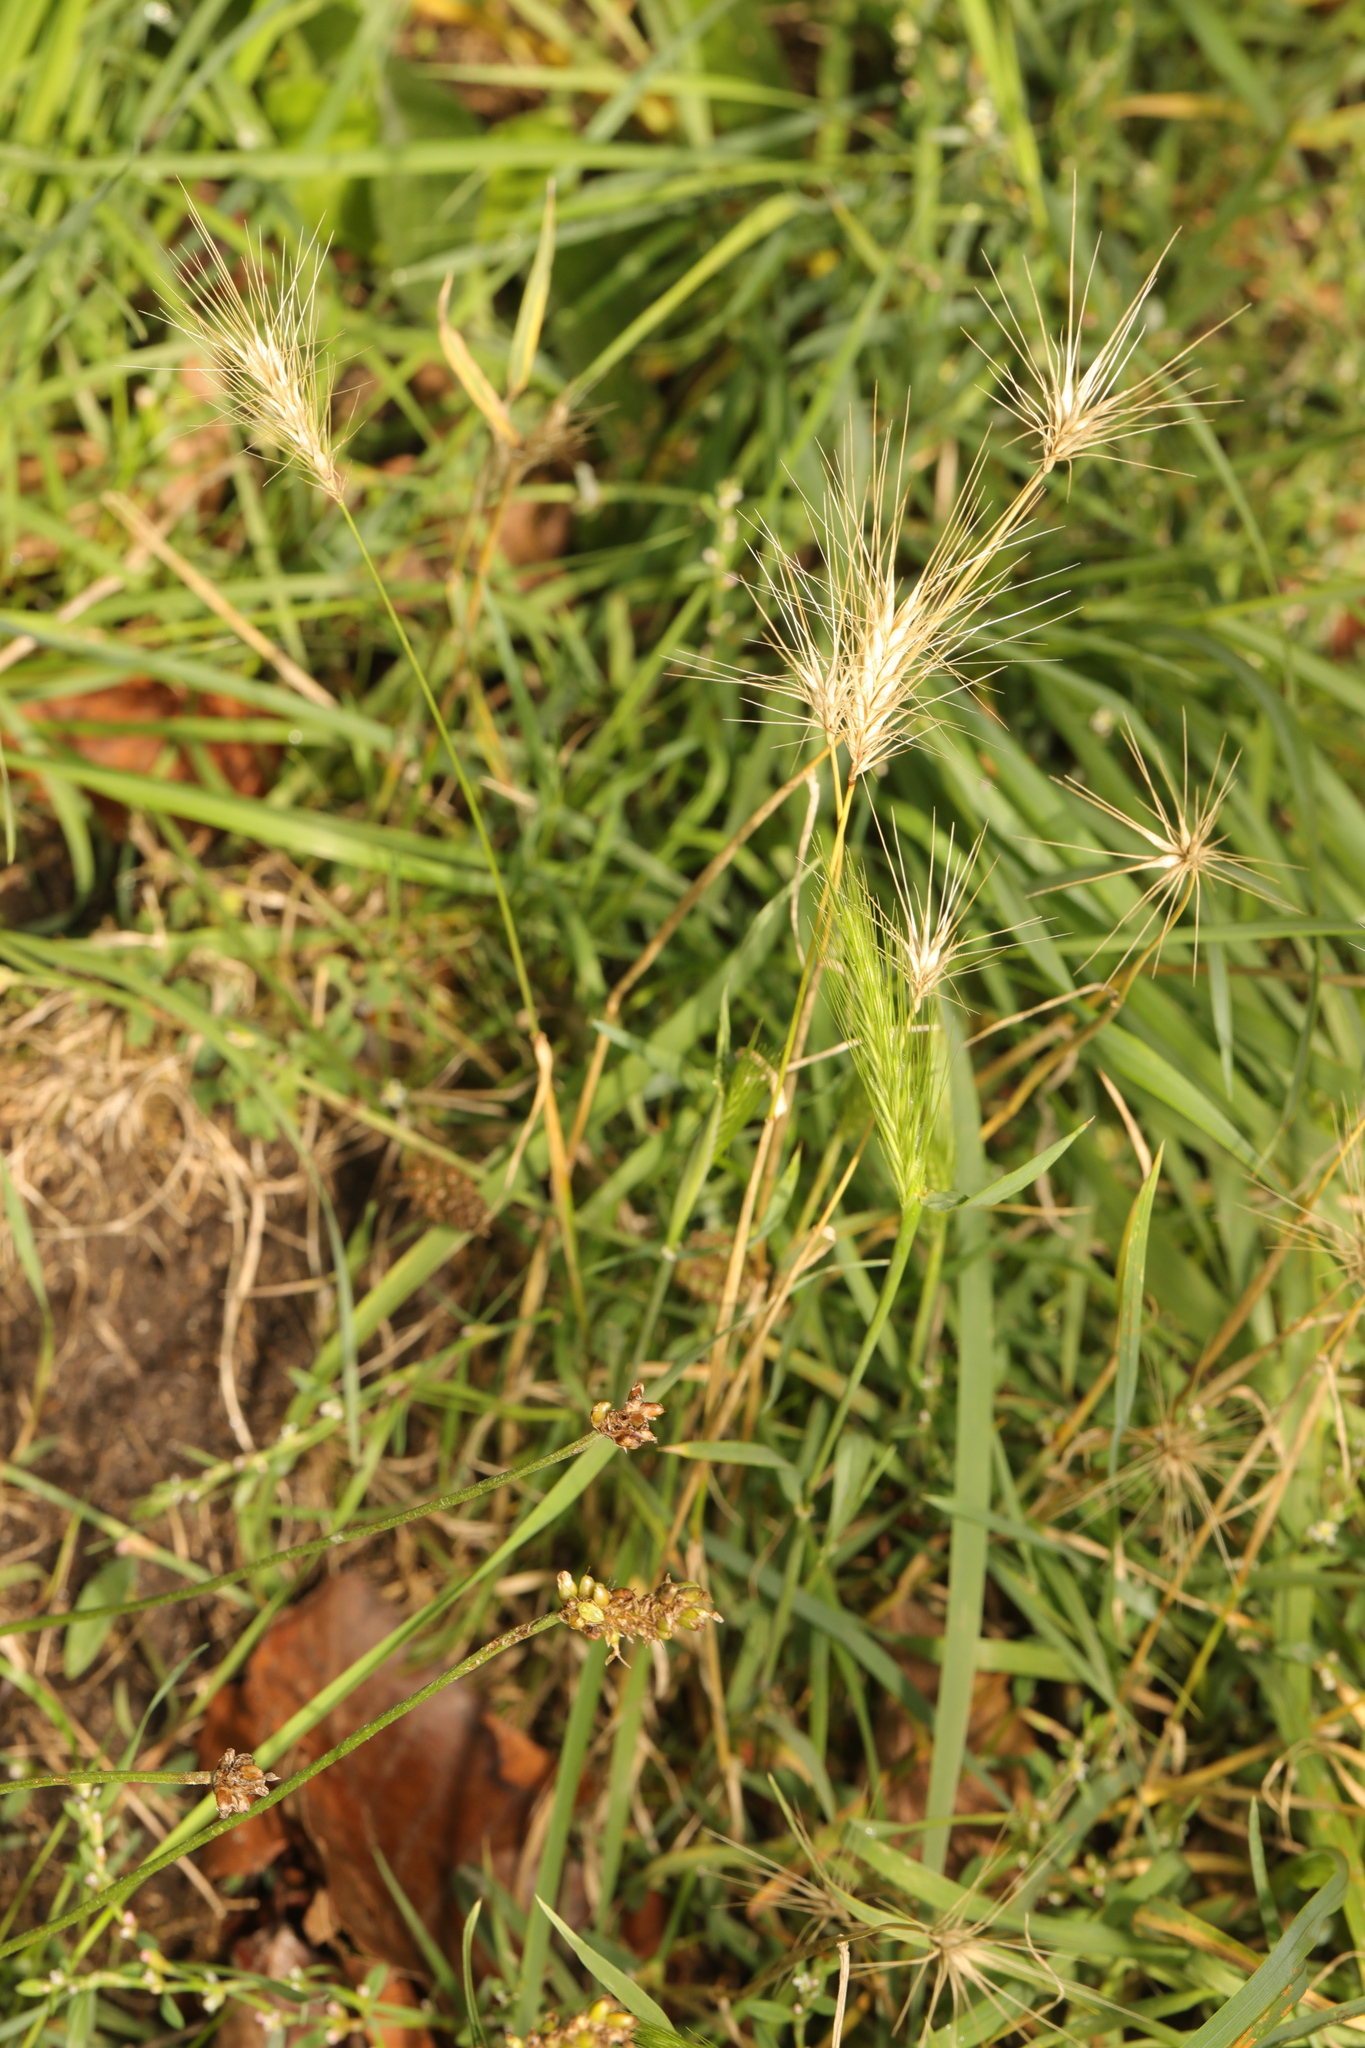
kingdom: Plantae
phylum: Tracheophyta
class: Liliopsida
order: Poales
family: Poaceae
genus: Hordeum
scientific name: Hordeum jubatum
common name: Foxtail barley
